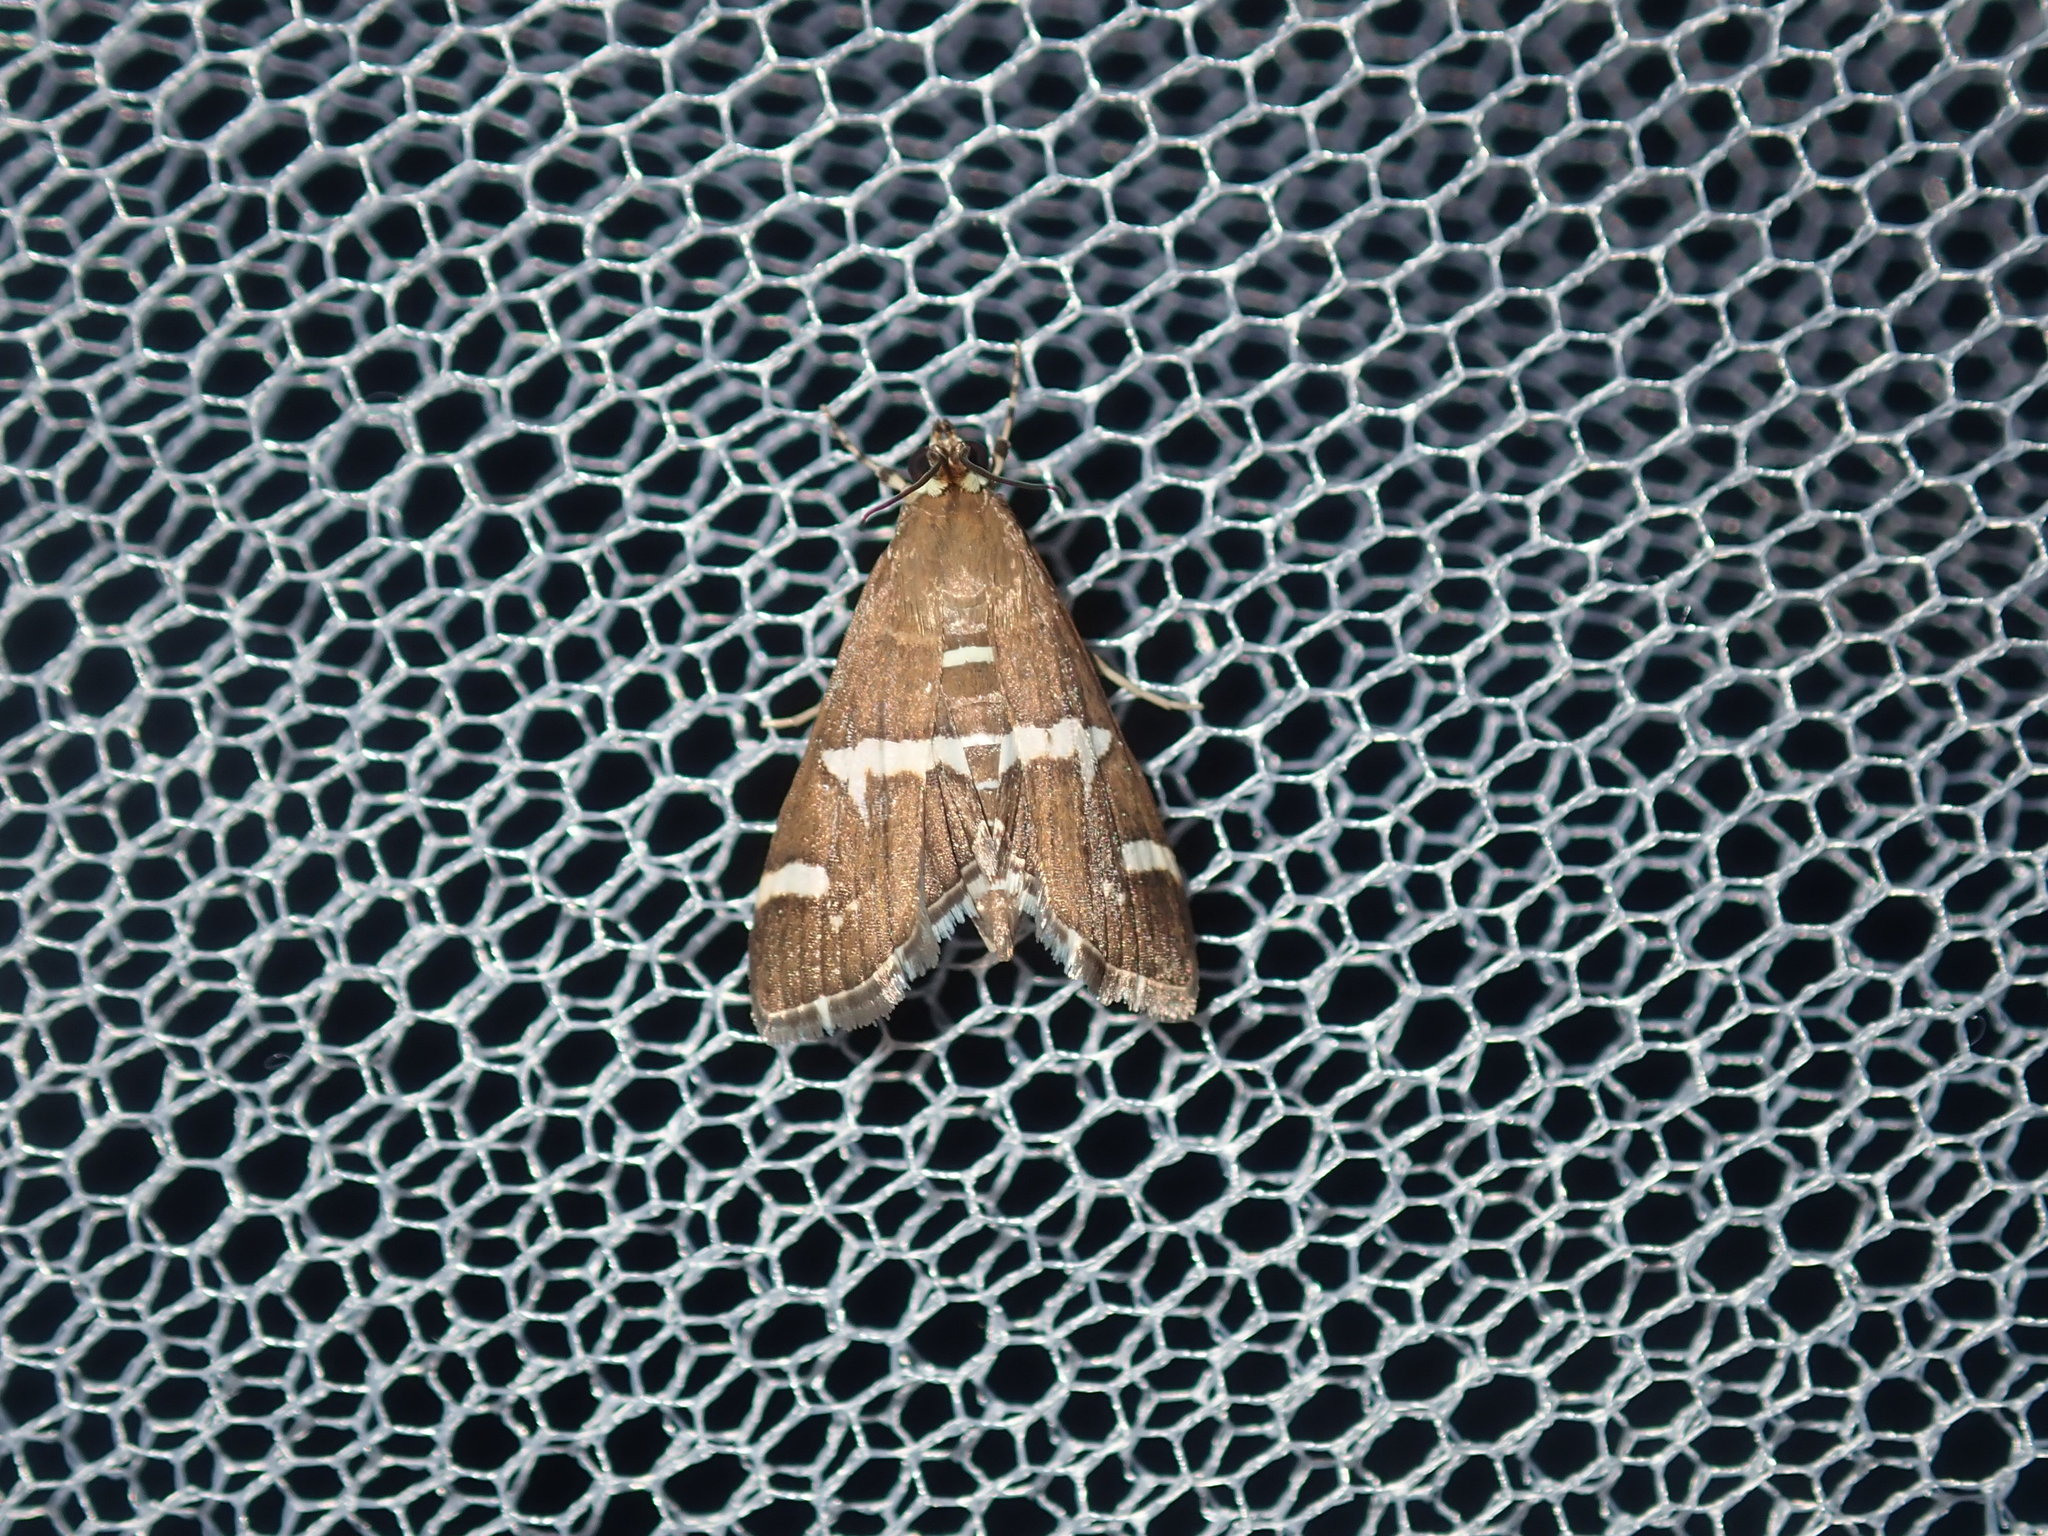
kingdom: Animalia
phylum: Arthropoda
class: Insecta
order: Lepidoptera
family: Crambidae
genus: Spoladea
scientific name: Spoladea recurvalis
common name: Beet webworm moth
